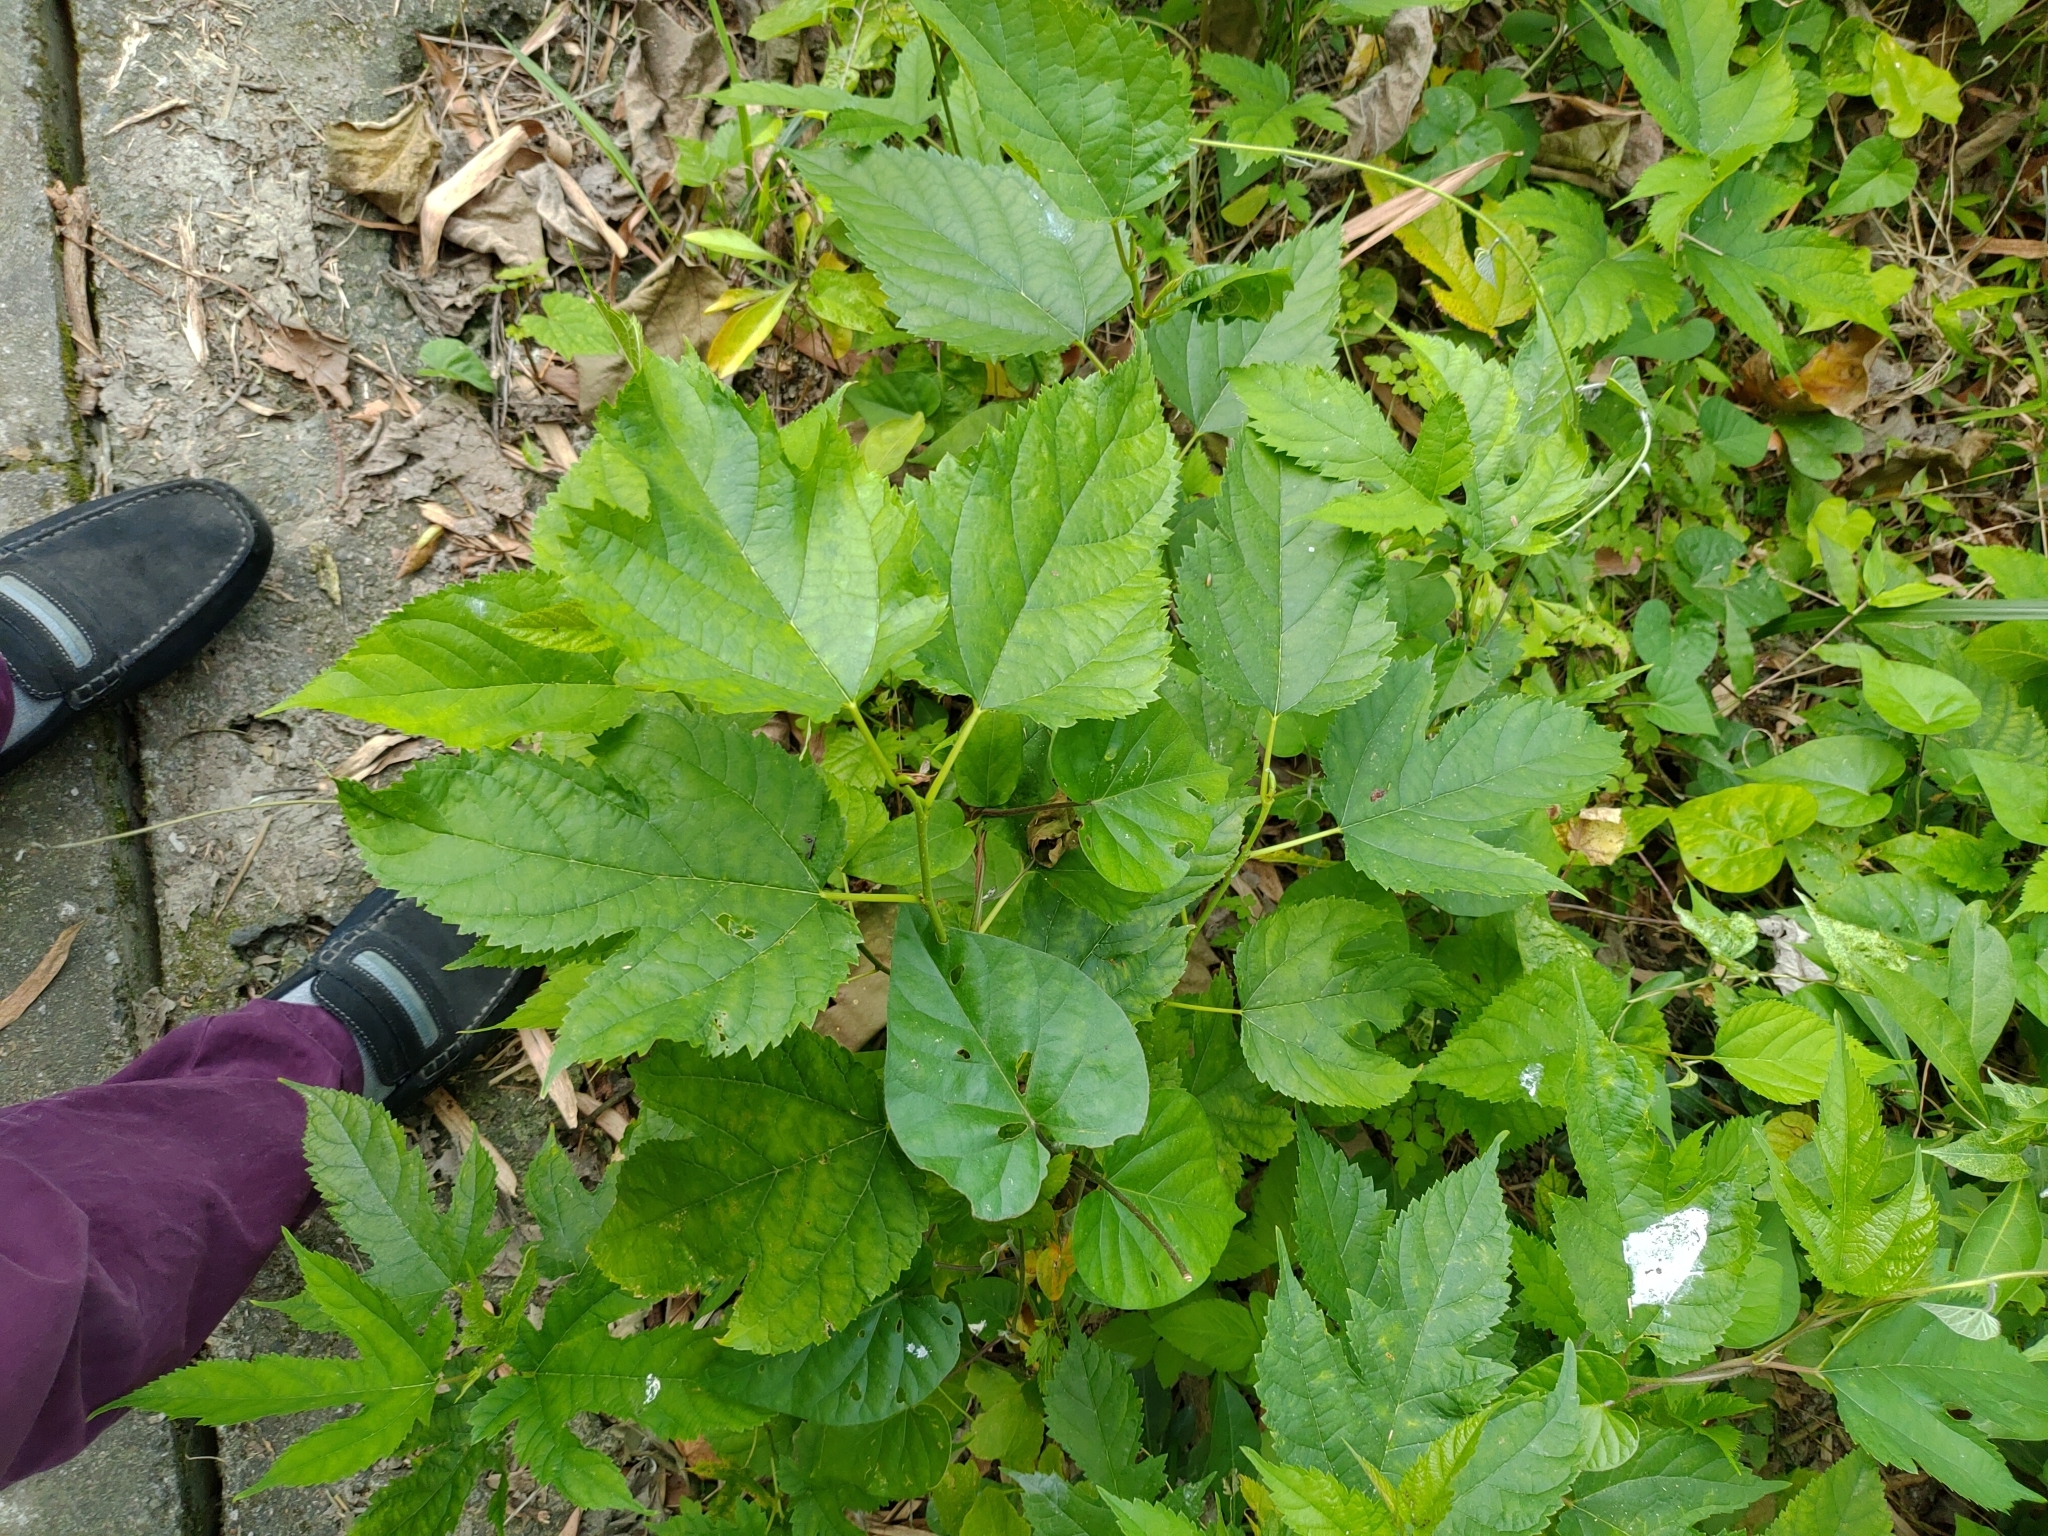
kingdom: Plantae
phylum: Tracheophyta
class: Magnoliopsida
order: Rosales
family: Moraceae
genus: Morus
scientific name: Morus indica
